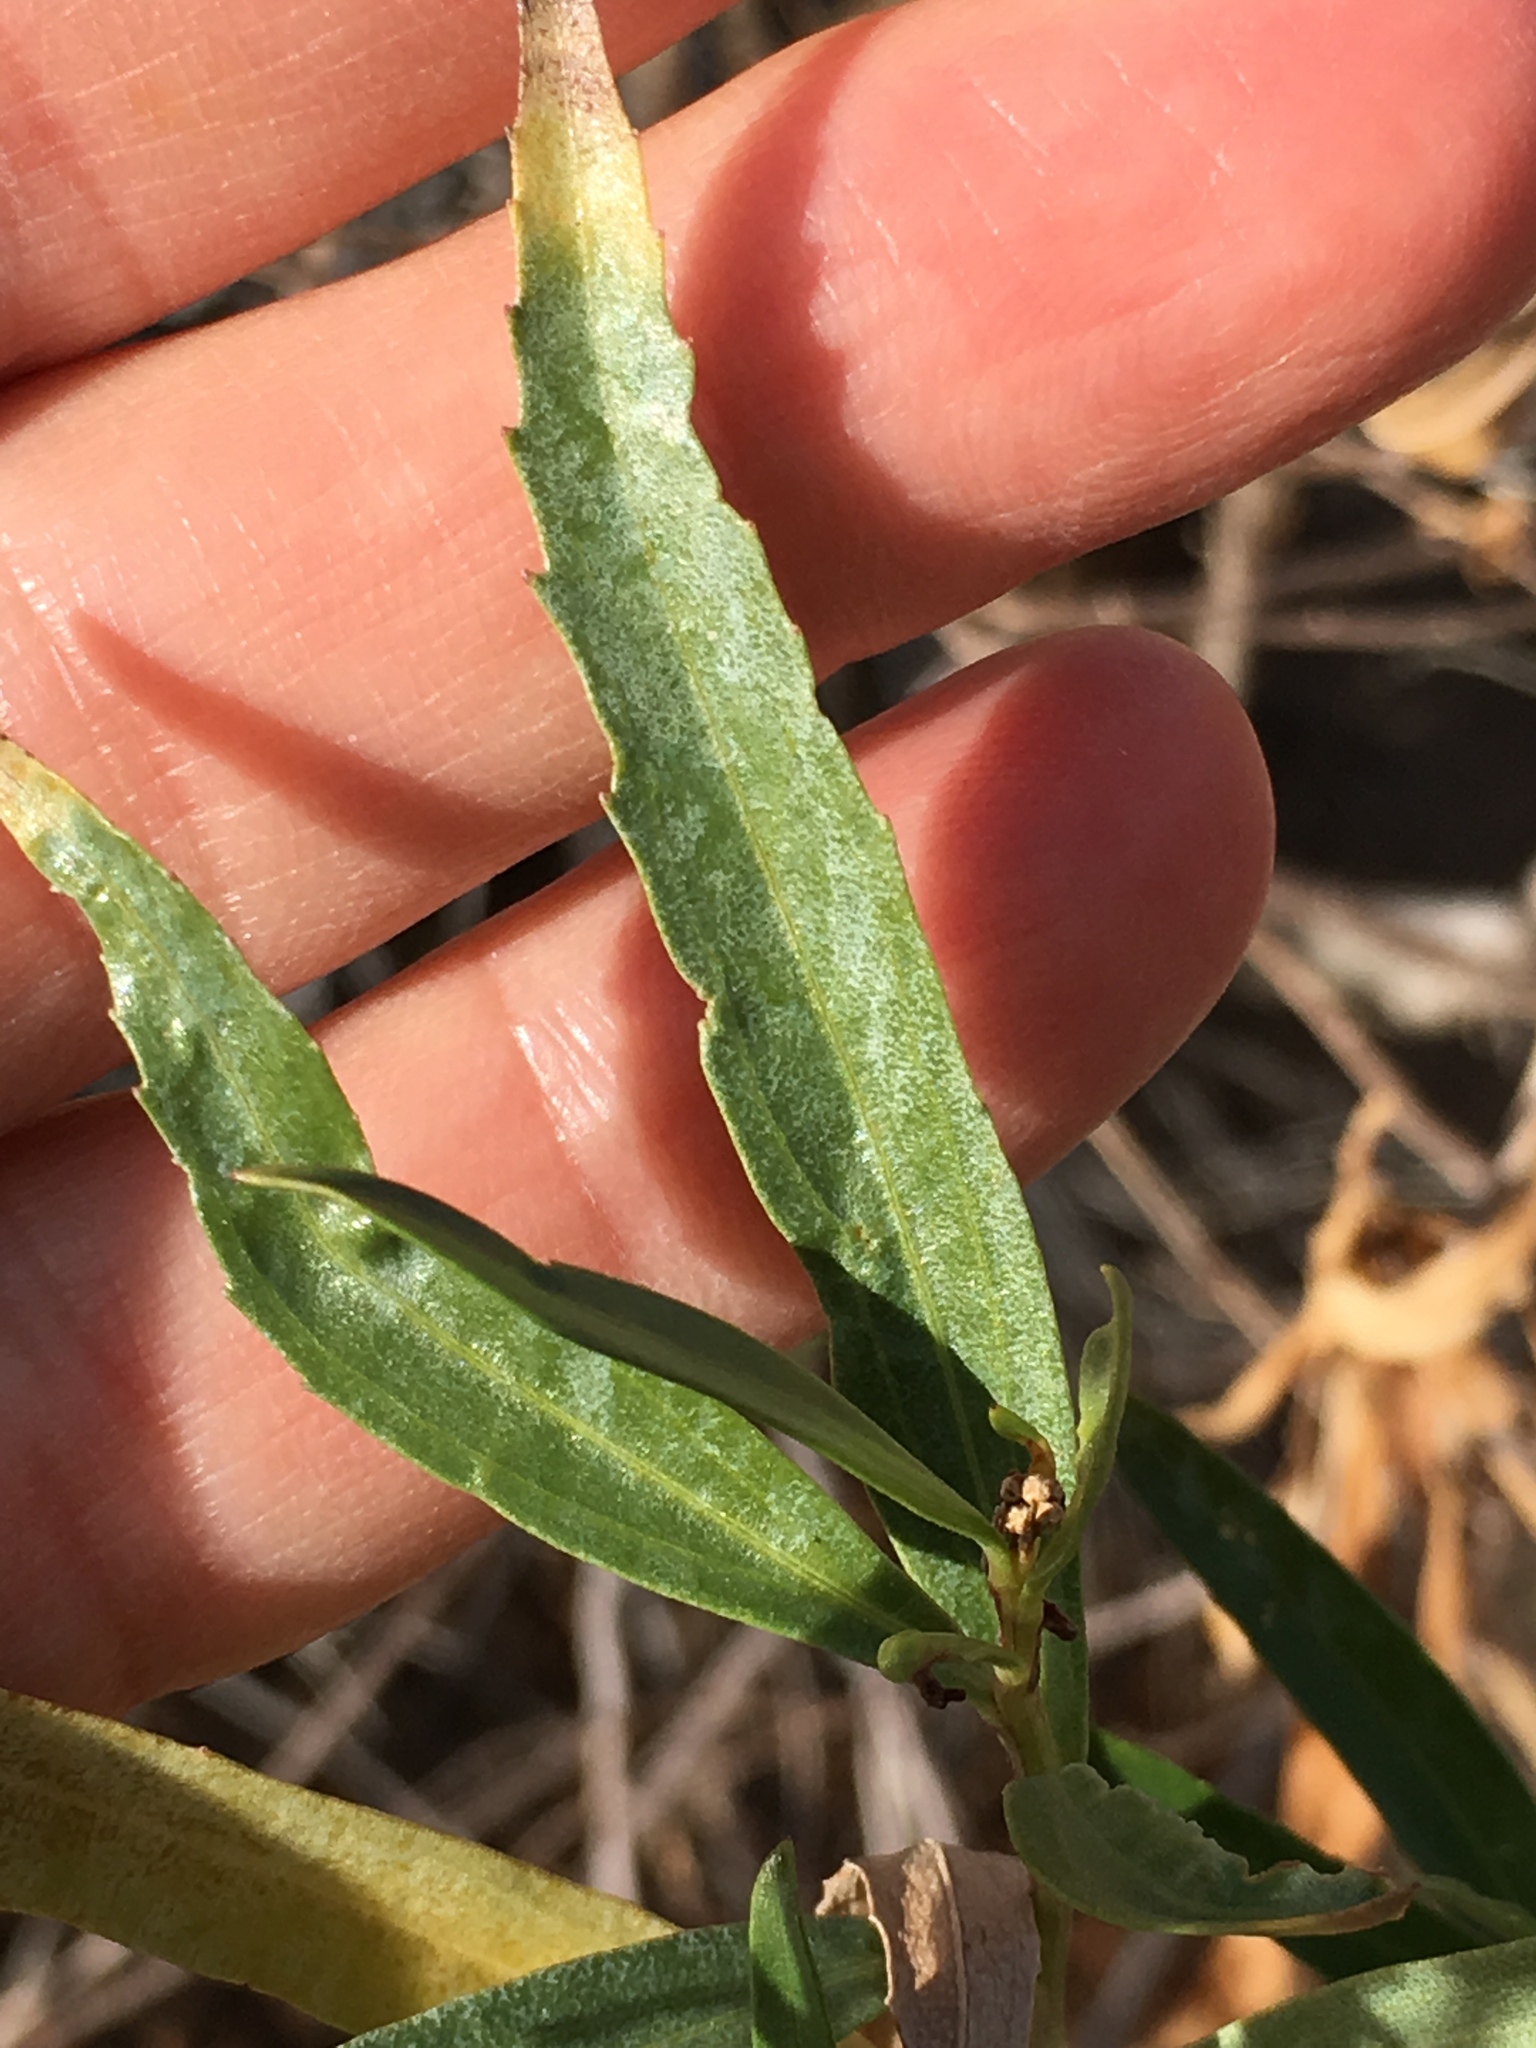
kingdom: Plantae
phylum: Tracheophyta
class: Magnoliopsida
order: Asterales
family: Asteraceae
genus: Baccharis
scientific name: Baccharis salicifolia
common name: Sticky baccharis
